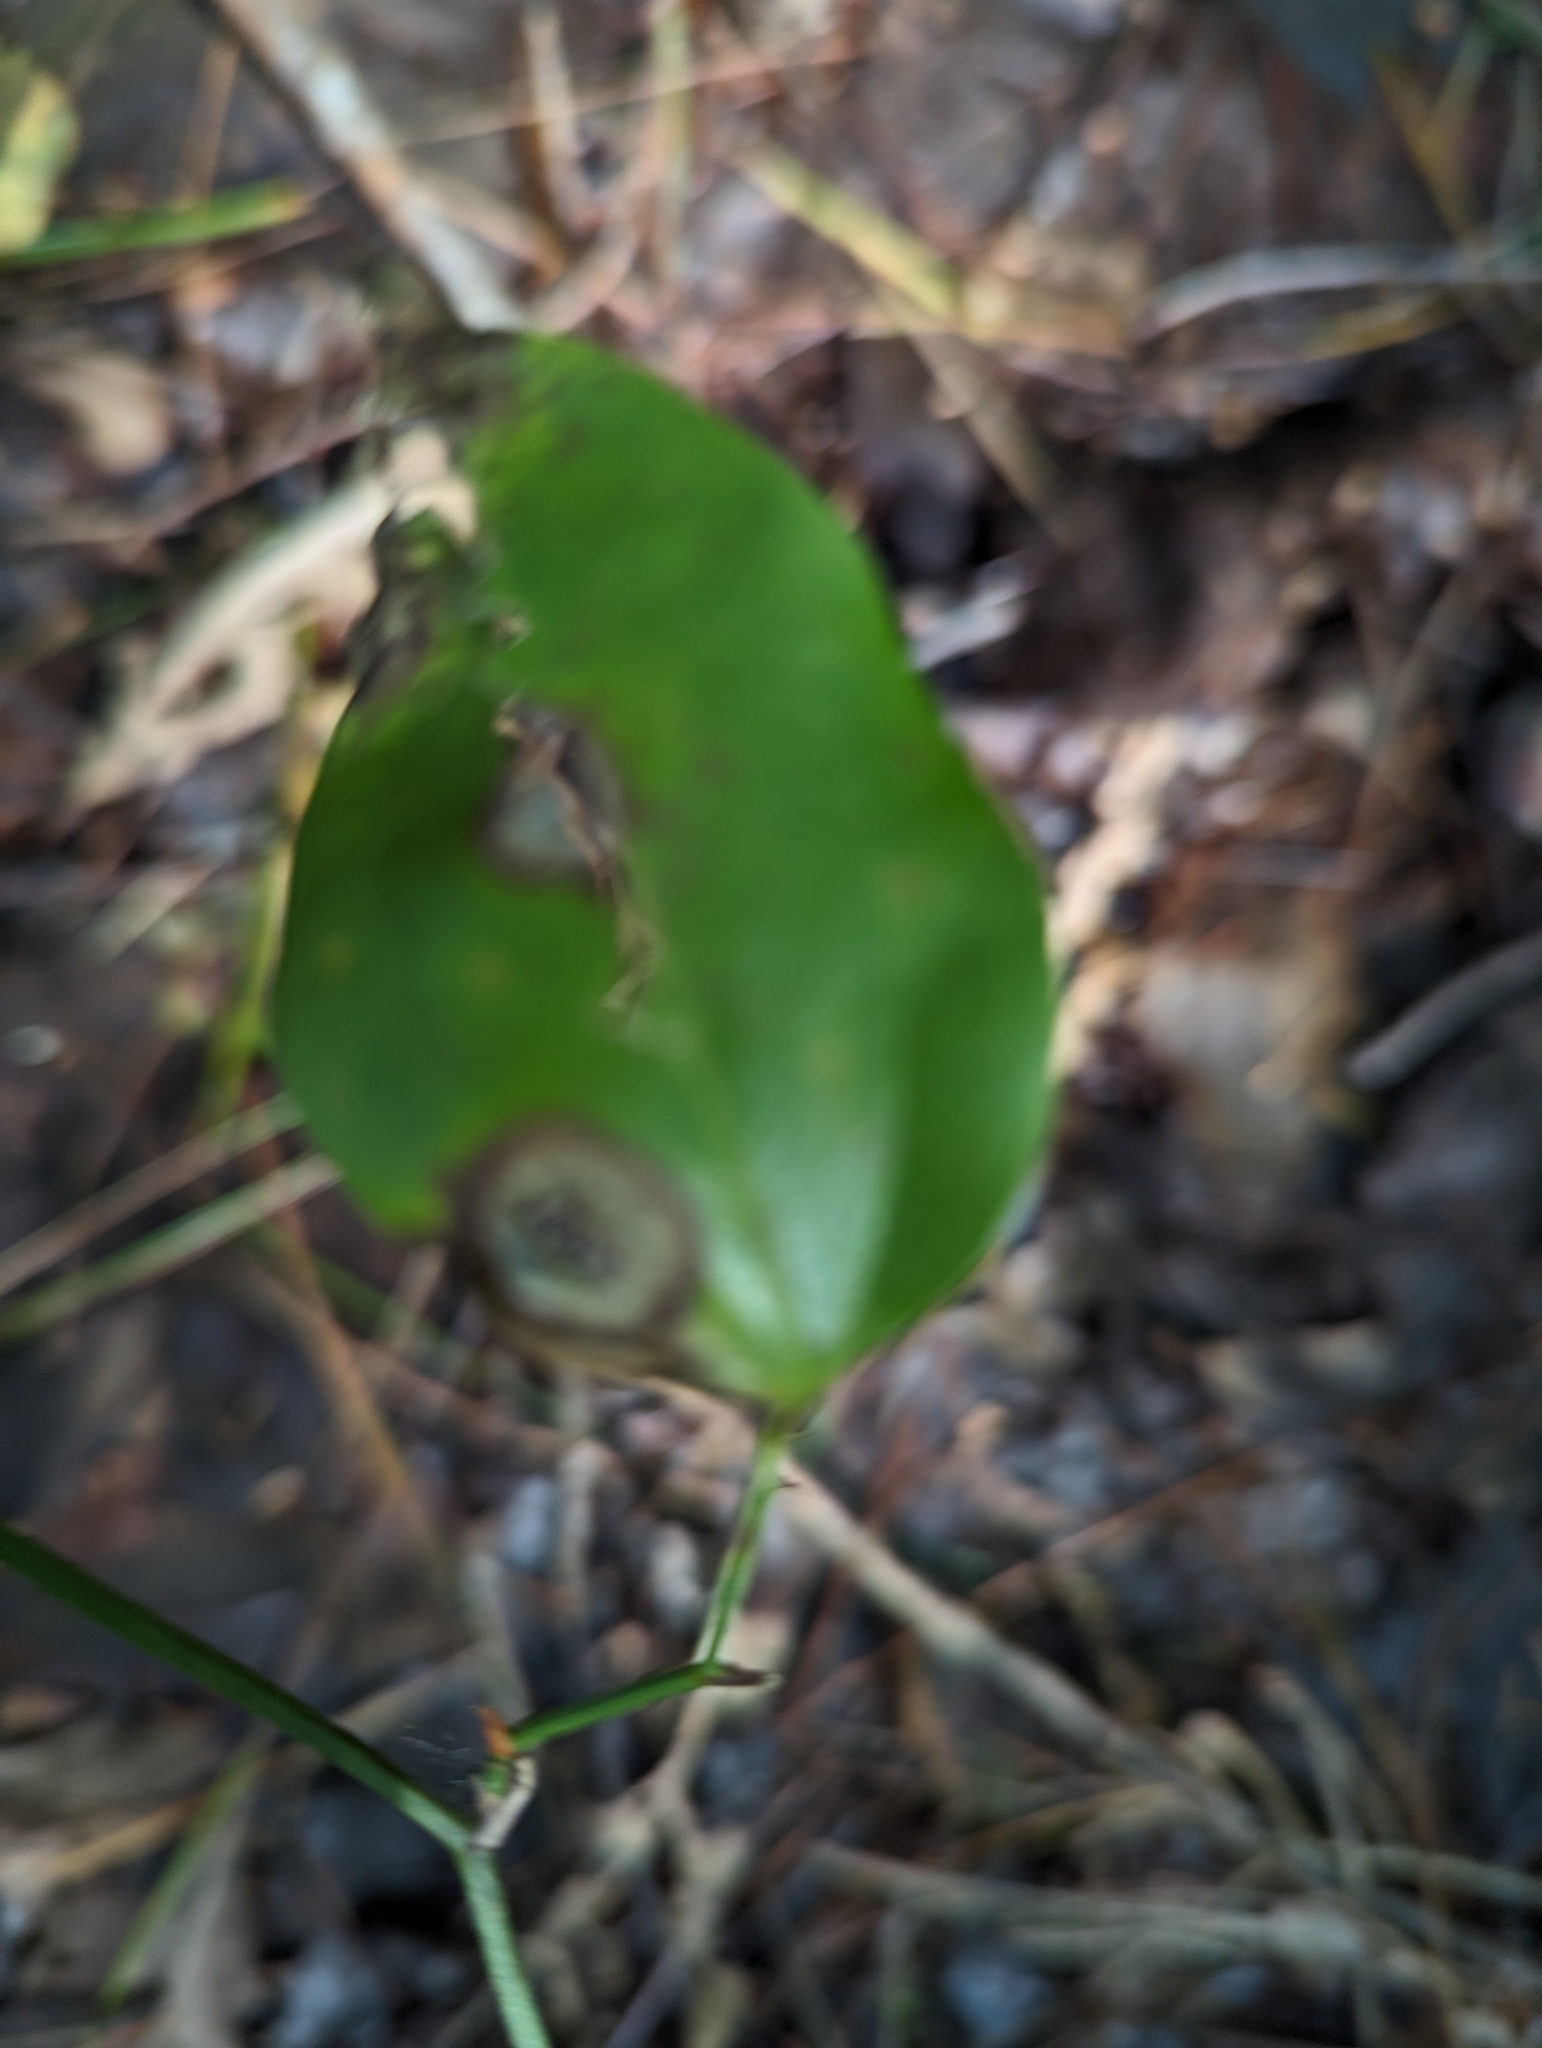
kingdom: Plantae
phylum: Tracheophyta
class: Liliopsida
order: Liliales
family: Smilacaceae
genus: Smilax
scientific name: Smilax rotundifolia
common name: Bullbriar
